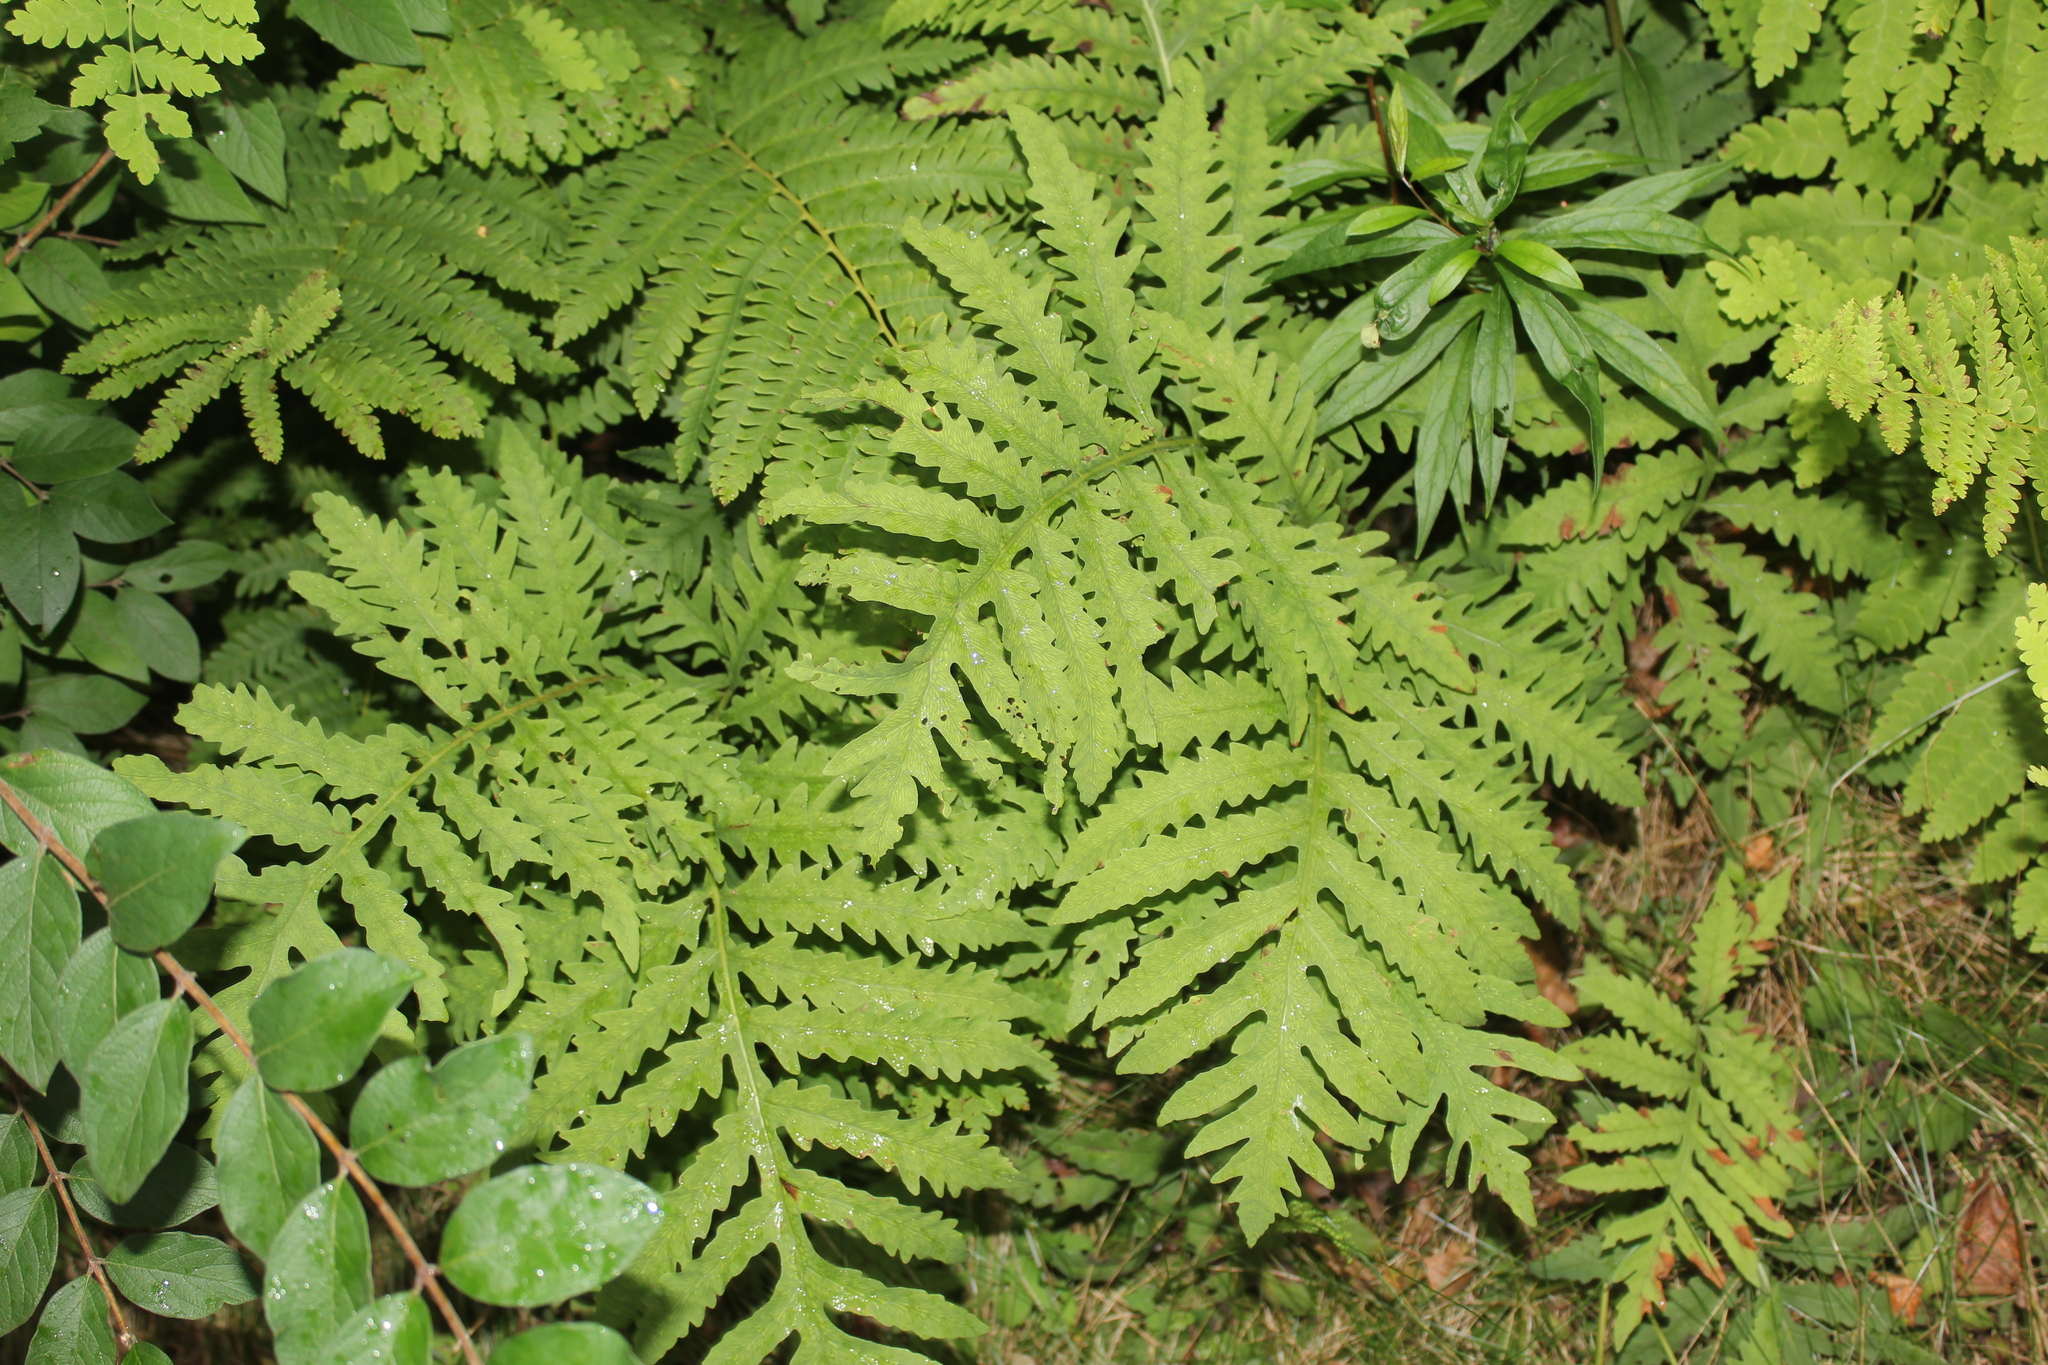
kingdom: Plantae
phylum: Tracheophyta
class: Polypodiopsida
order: Polypodiales
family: Onocleaceae
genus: Onoclea
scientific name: Onoclea sensibilis
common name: Sensitive fern
